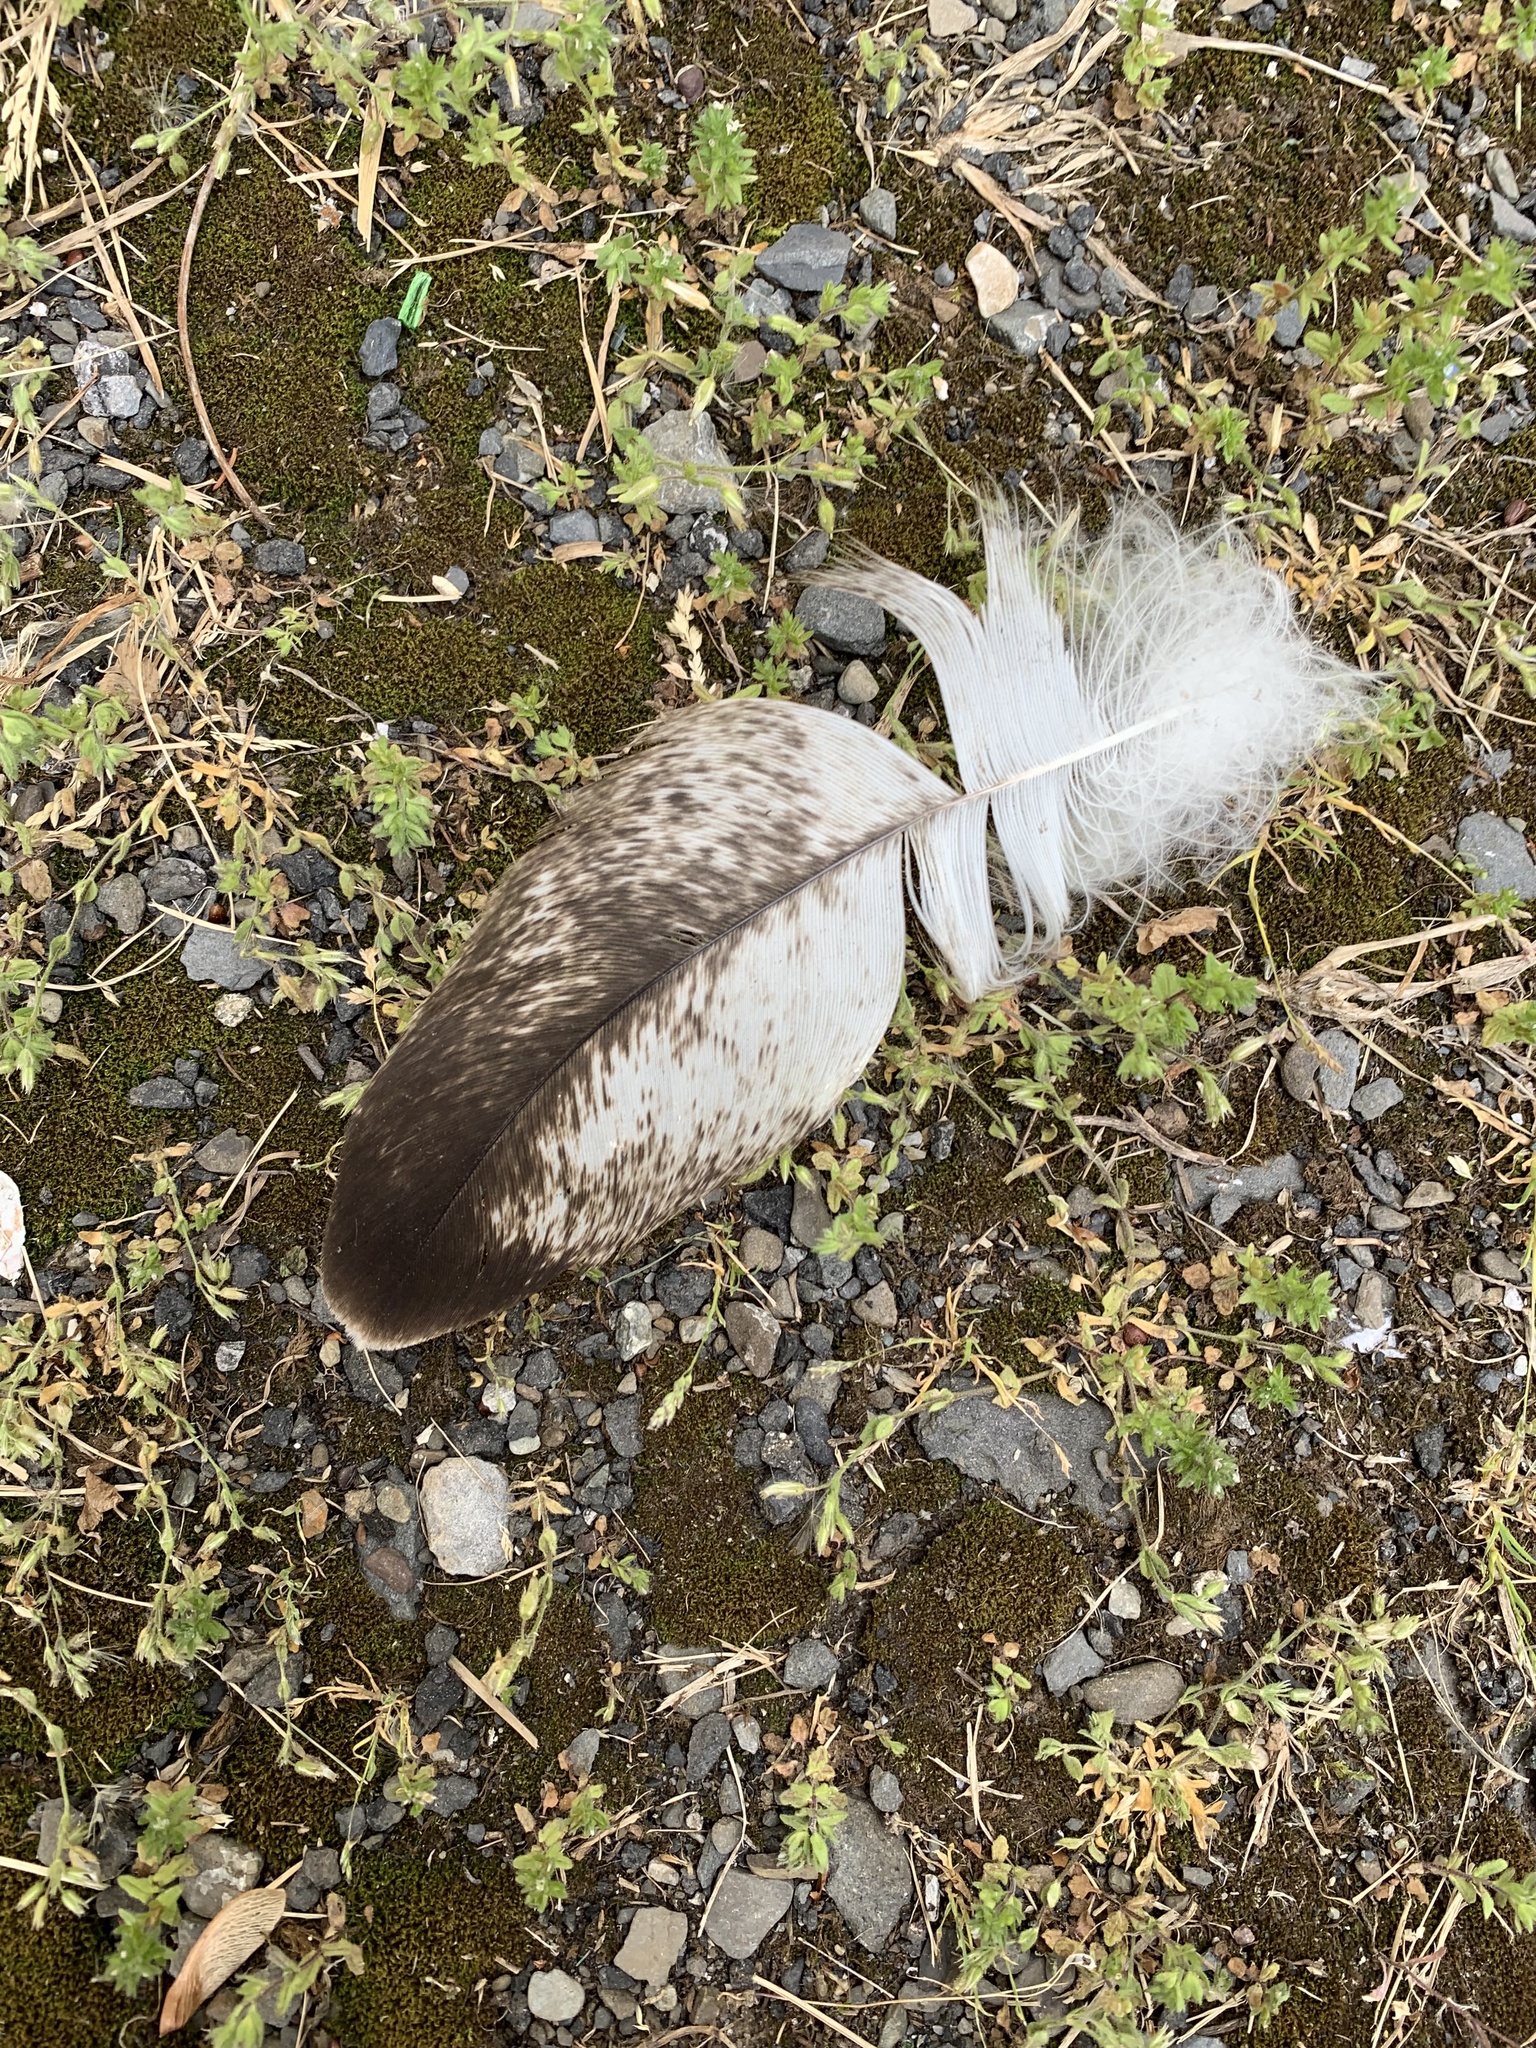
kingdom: Animalia
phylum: Chordata
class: Aves
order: Accipitriformes
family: Accipitridae
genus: Haliaeetus
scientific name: Haliaeetus leucocephalus
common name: Bald eagle
